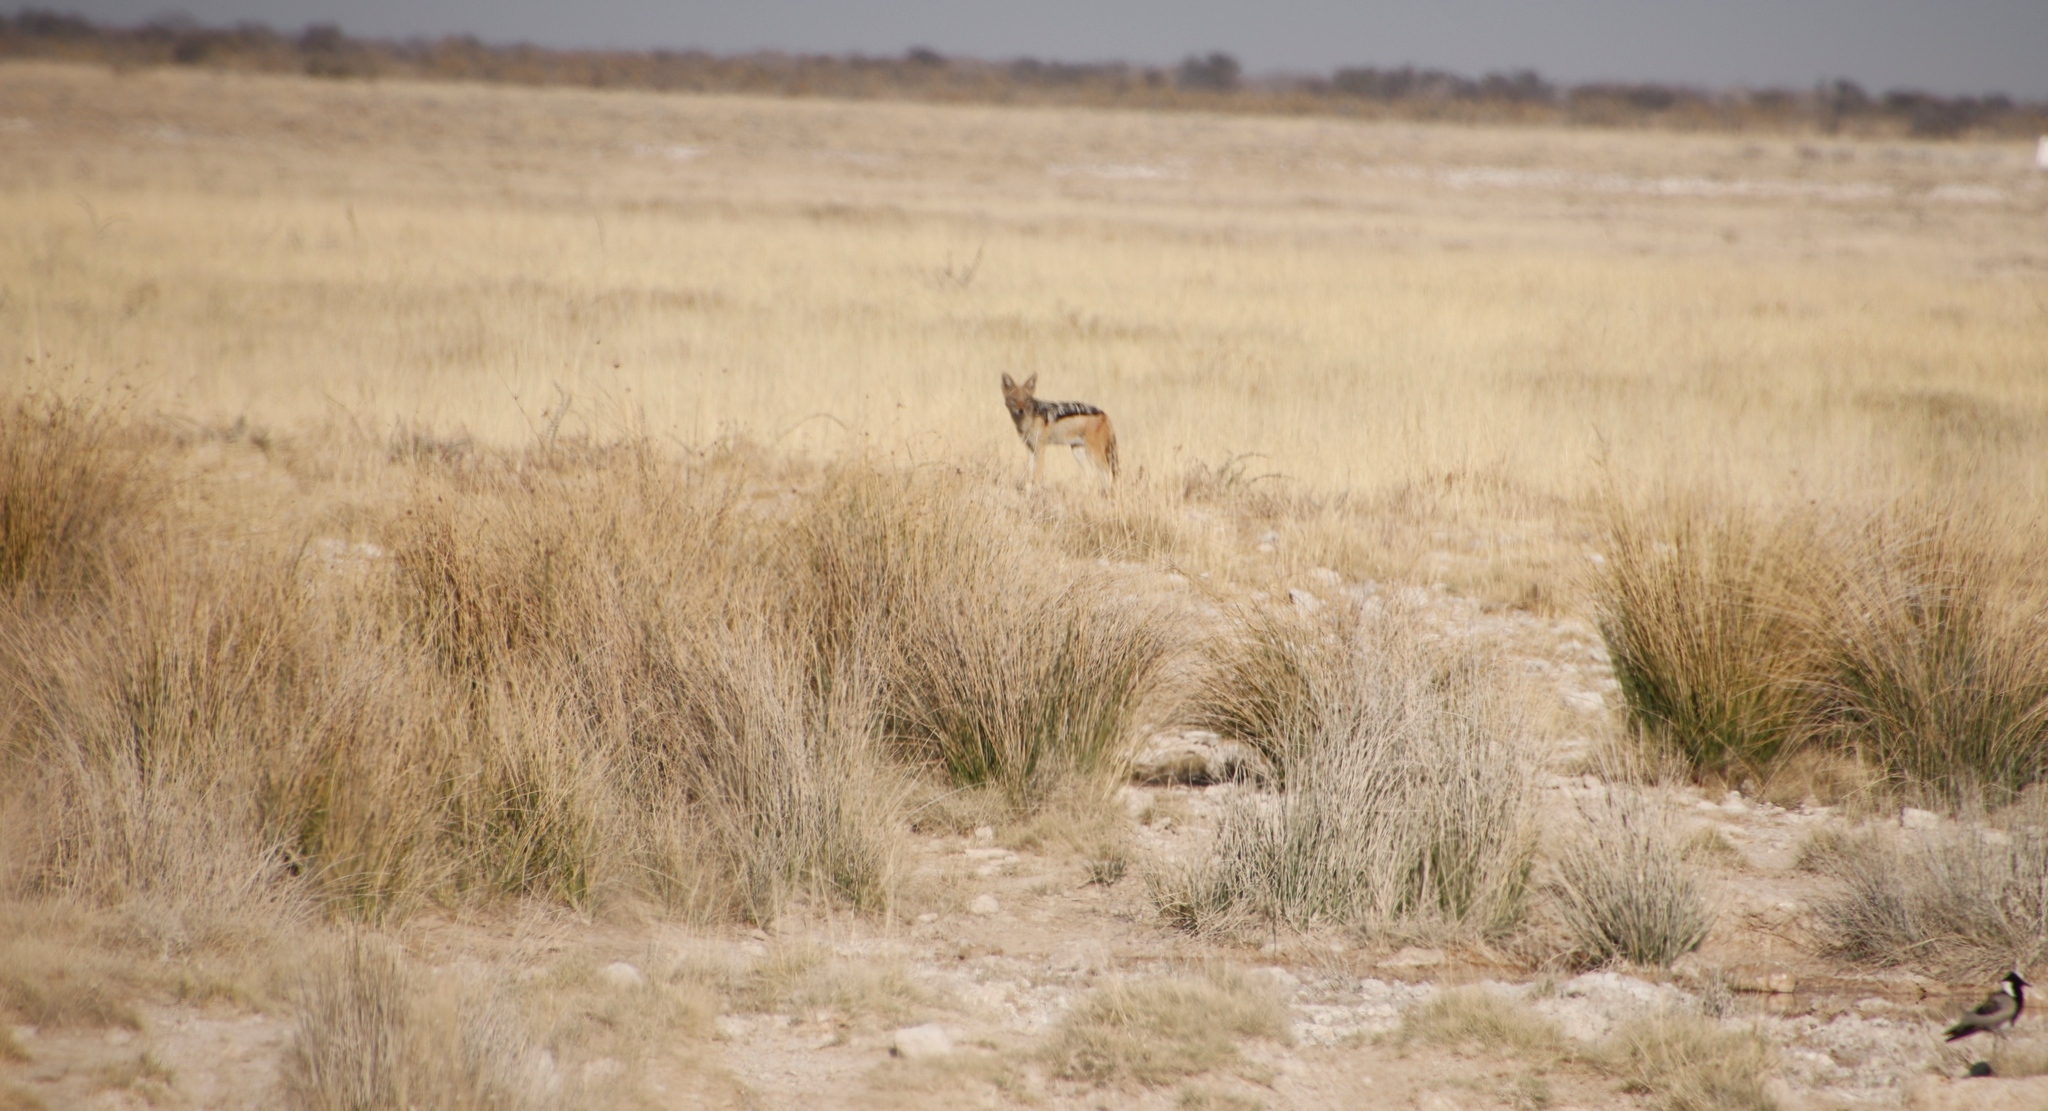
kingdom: Animalia
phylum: Chordata
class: Mammalia
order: Carnivora
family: Canidae
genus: Lupulella
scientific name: Lupulella
